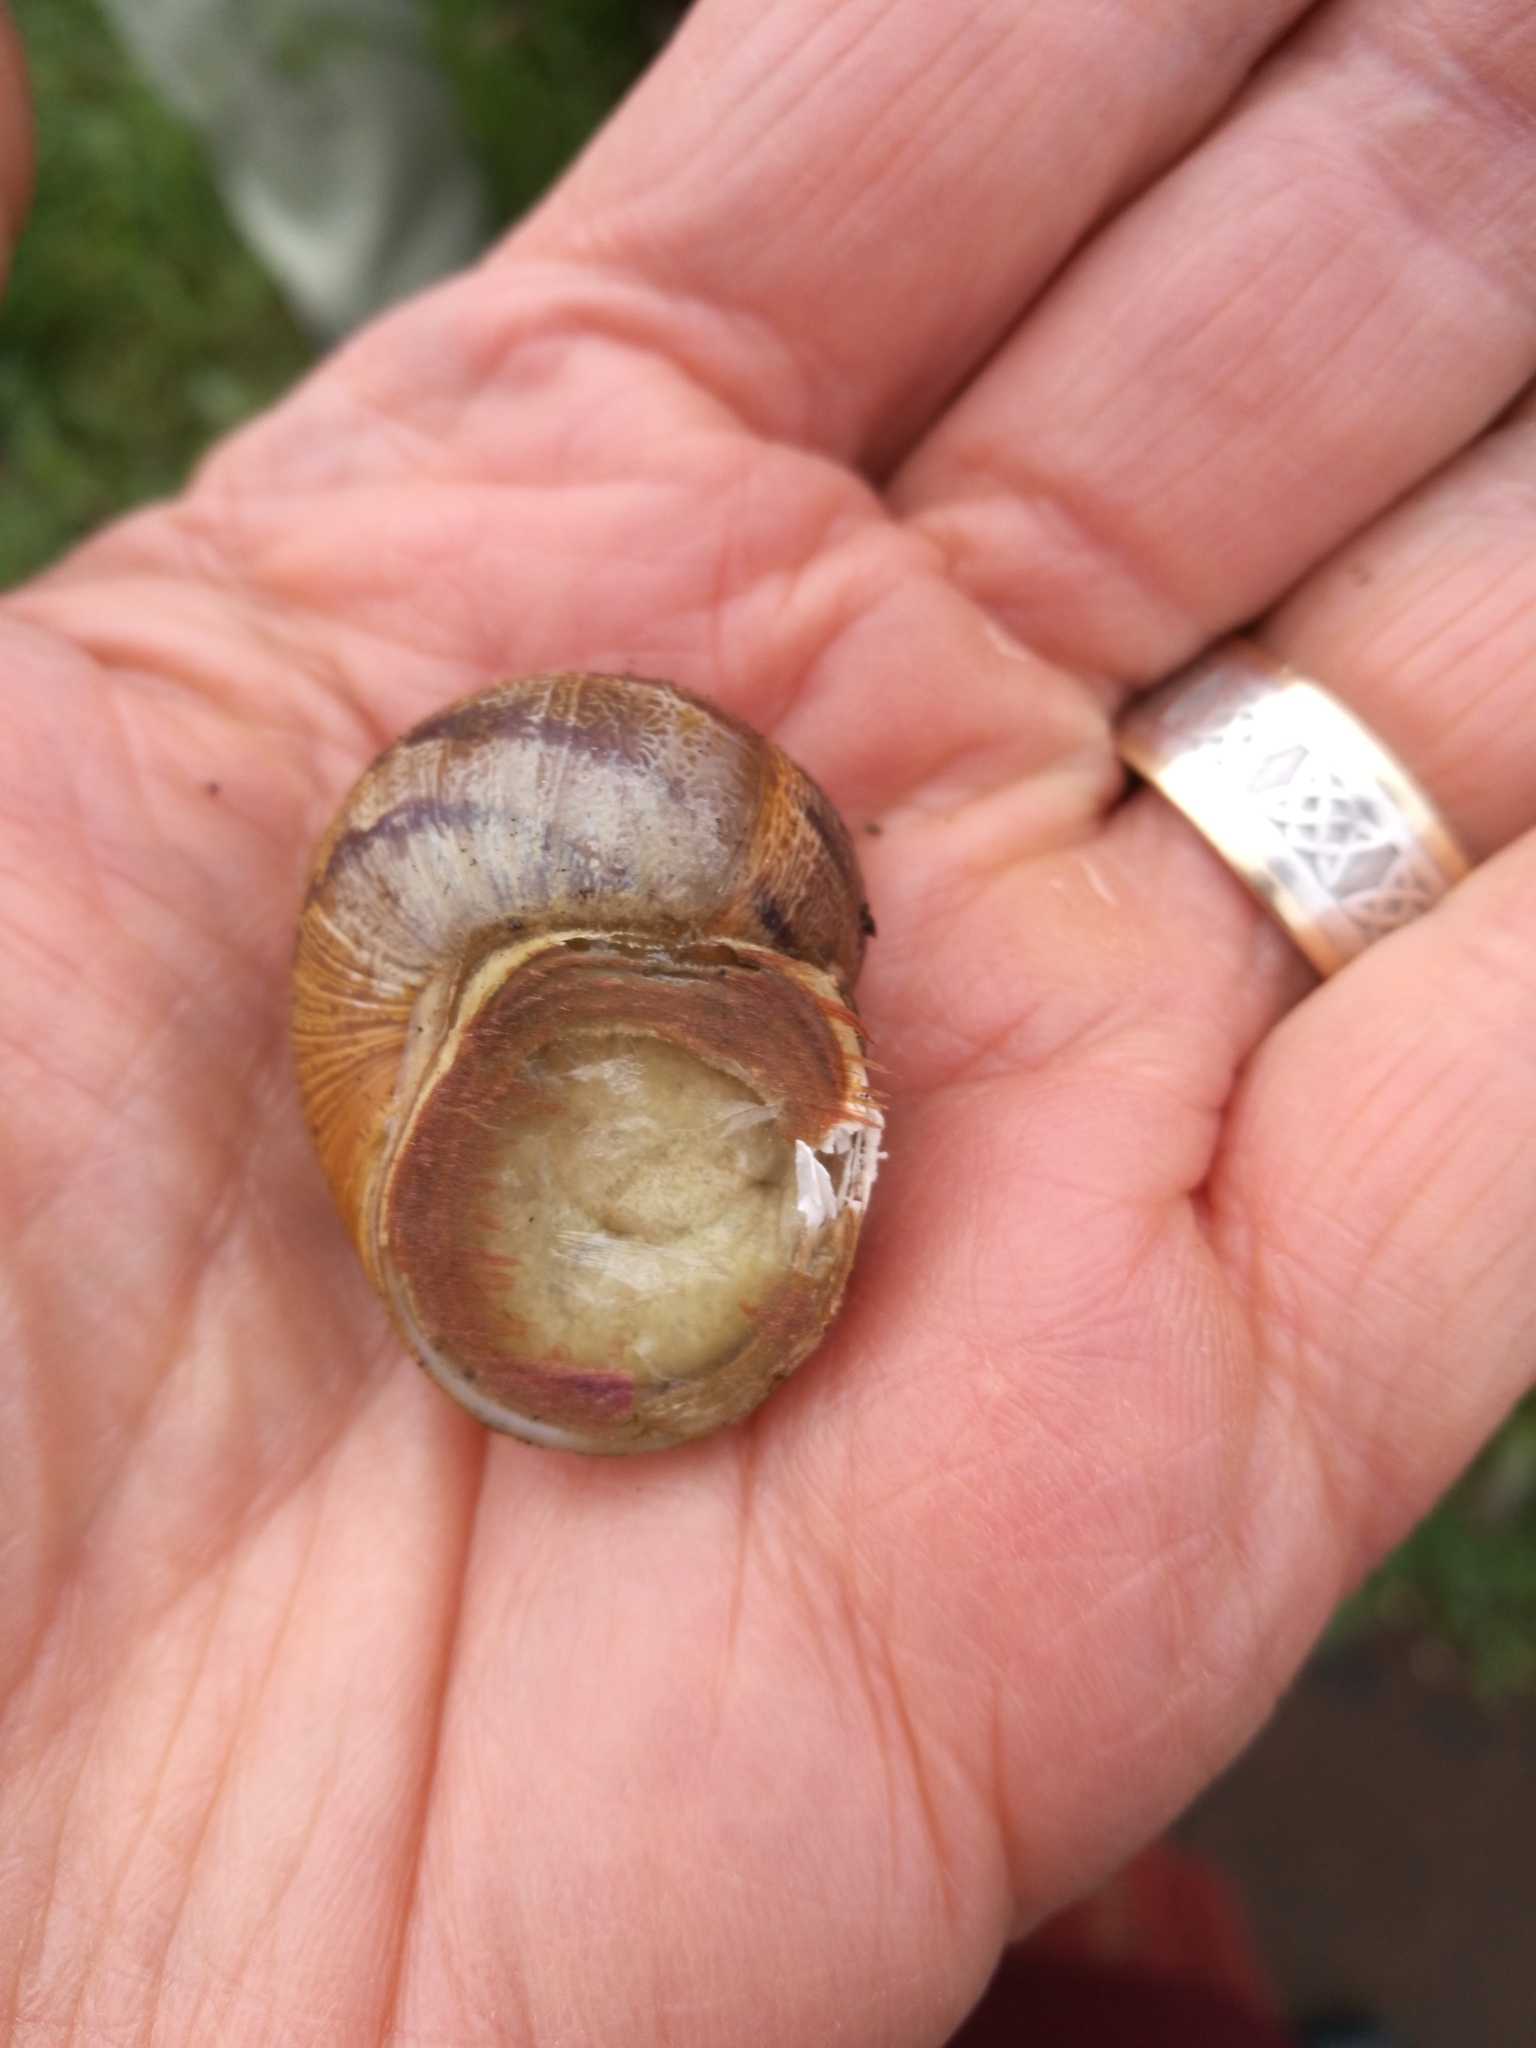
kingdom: Animalia
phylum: Mollusca
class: Gastropoda
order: Stylommatophora
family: Helicidae
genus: Cornu
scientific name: Cornu aspersum
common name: Brown garden snail
